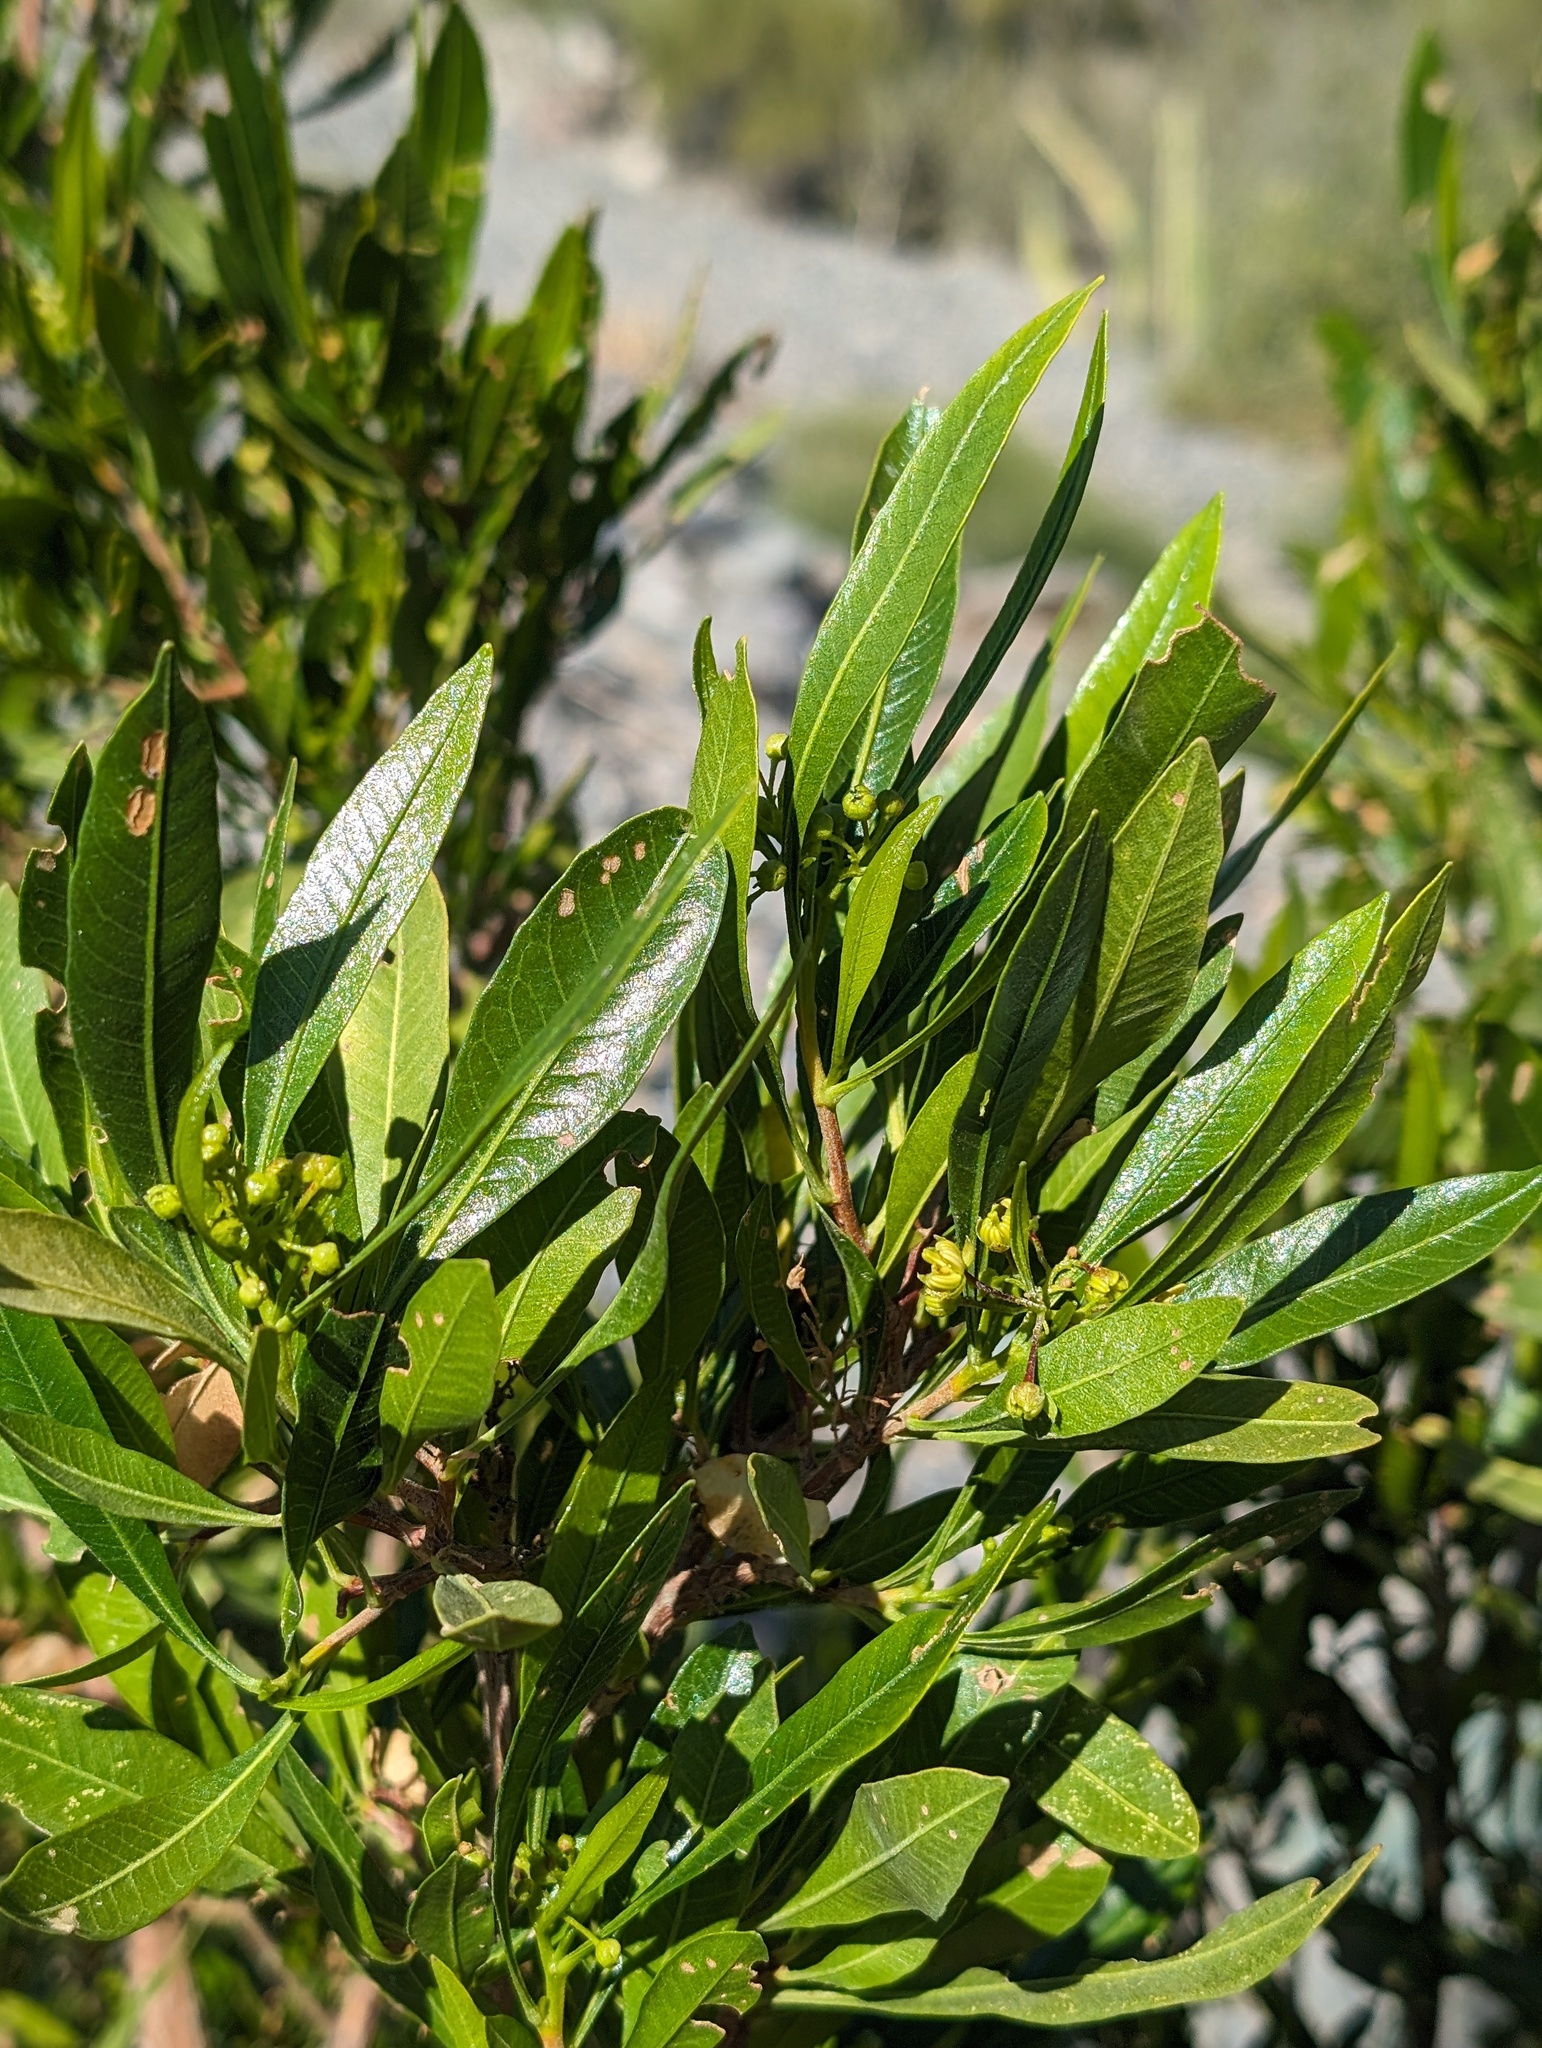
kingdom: Plantae
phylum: Tracheophyta
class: Magnoliopsida
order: Sapindales
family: Sapindaceae
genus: Dodonaea
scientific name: Dodonaea viscosa
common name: Hopbush
